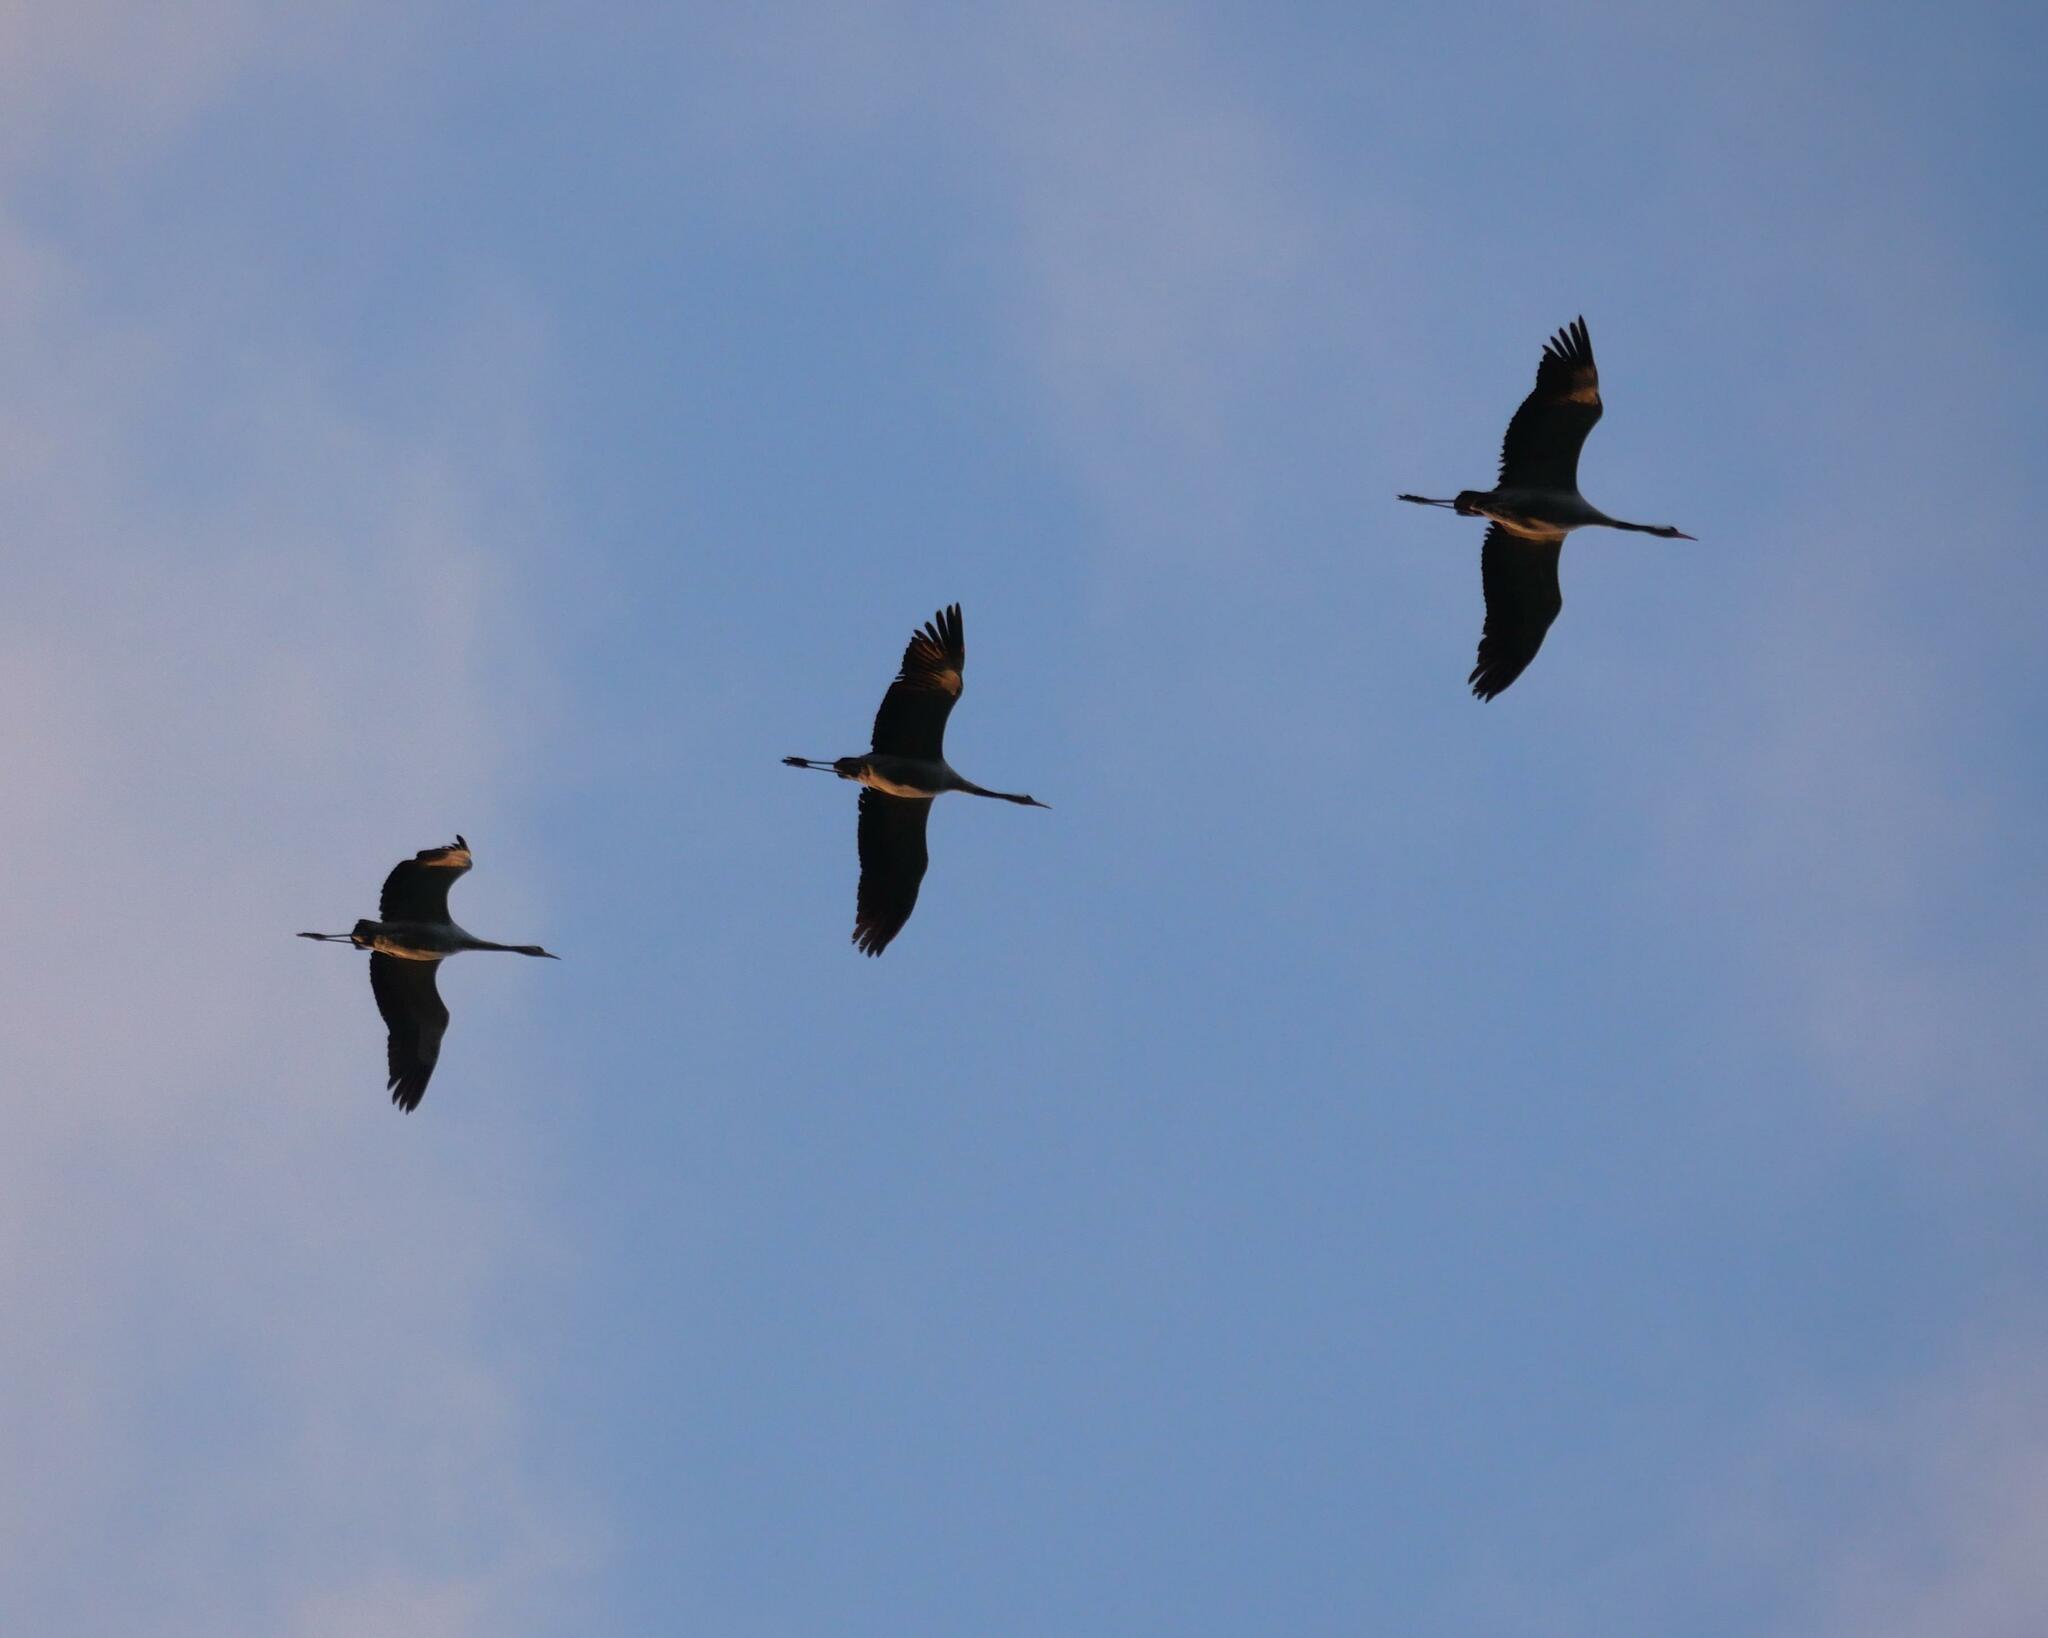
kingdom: Animalia
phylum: Chordata
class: Aves
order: Gruiformes
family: Gruidae
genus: Grus
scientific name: Grus grus
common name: Common crane
